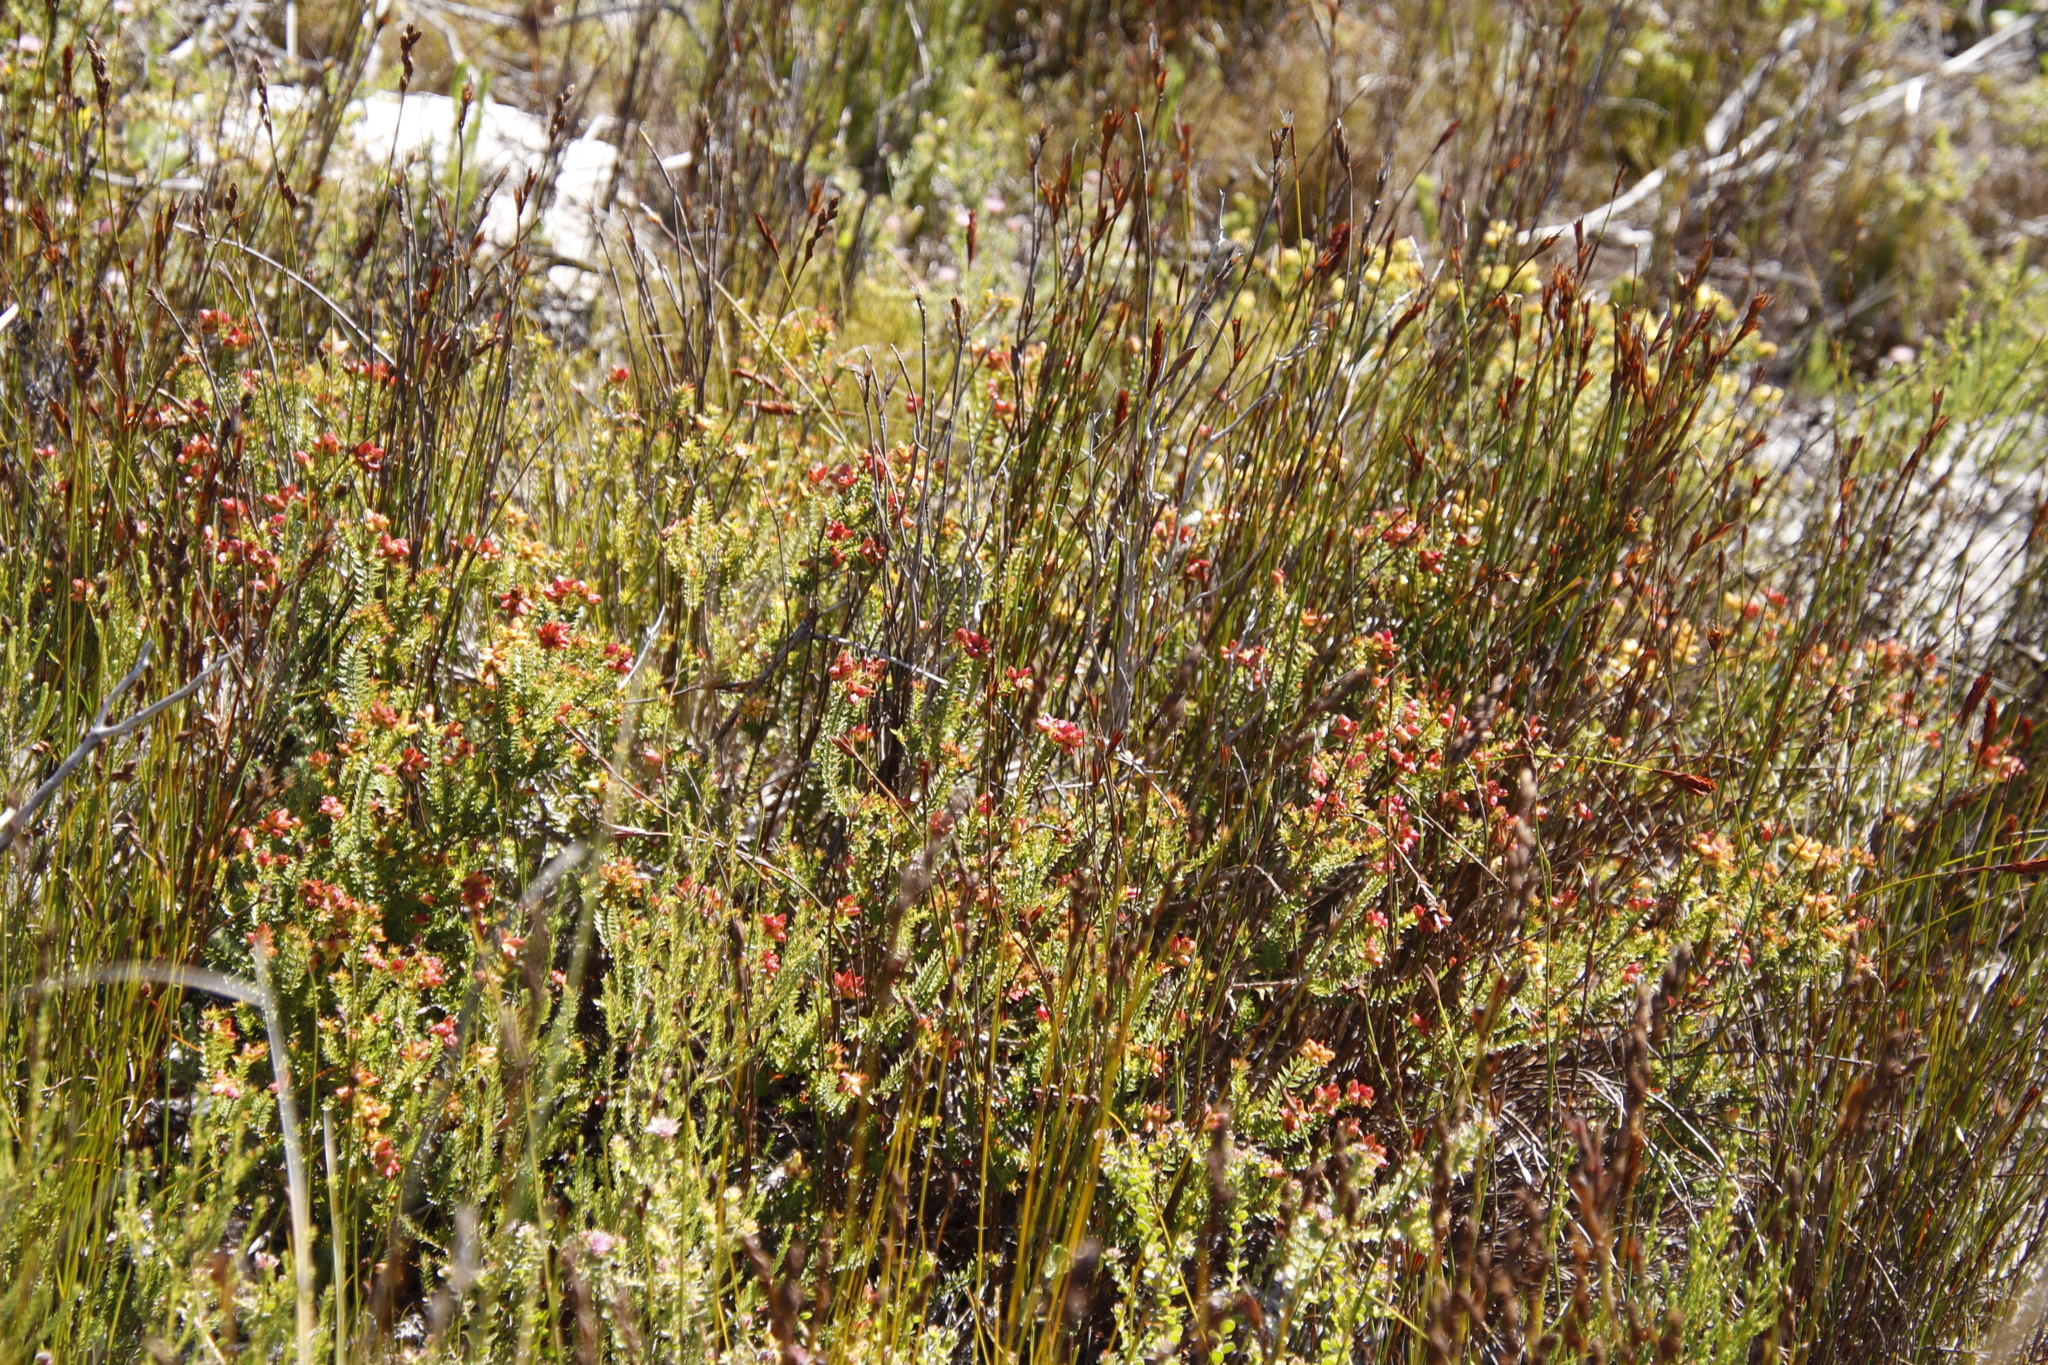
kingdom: Plantae
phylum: Tracheophyta
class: Magnoliopsida
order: Myrtales
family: Penaeaceae
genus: Penaea
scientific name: Penaea mucronata
